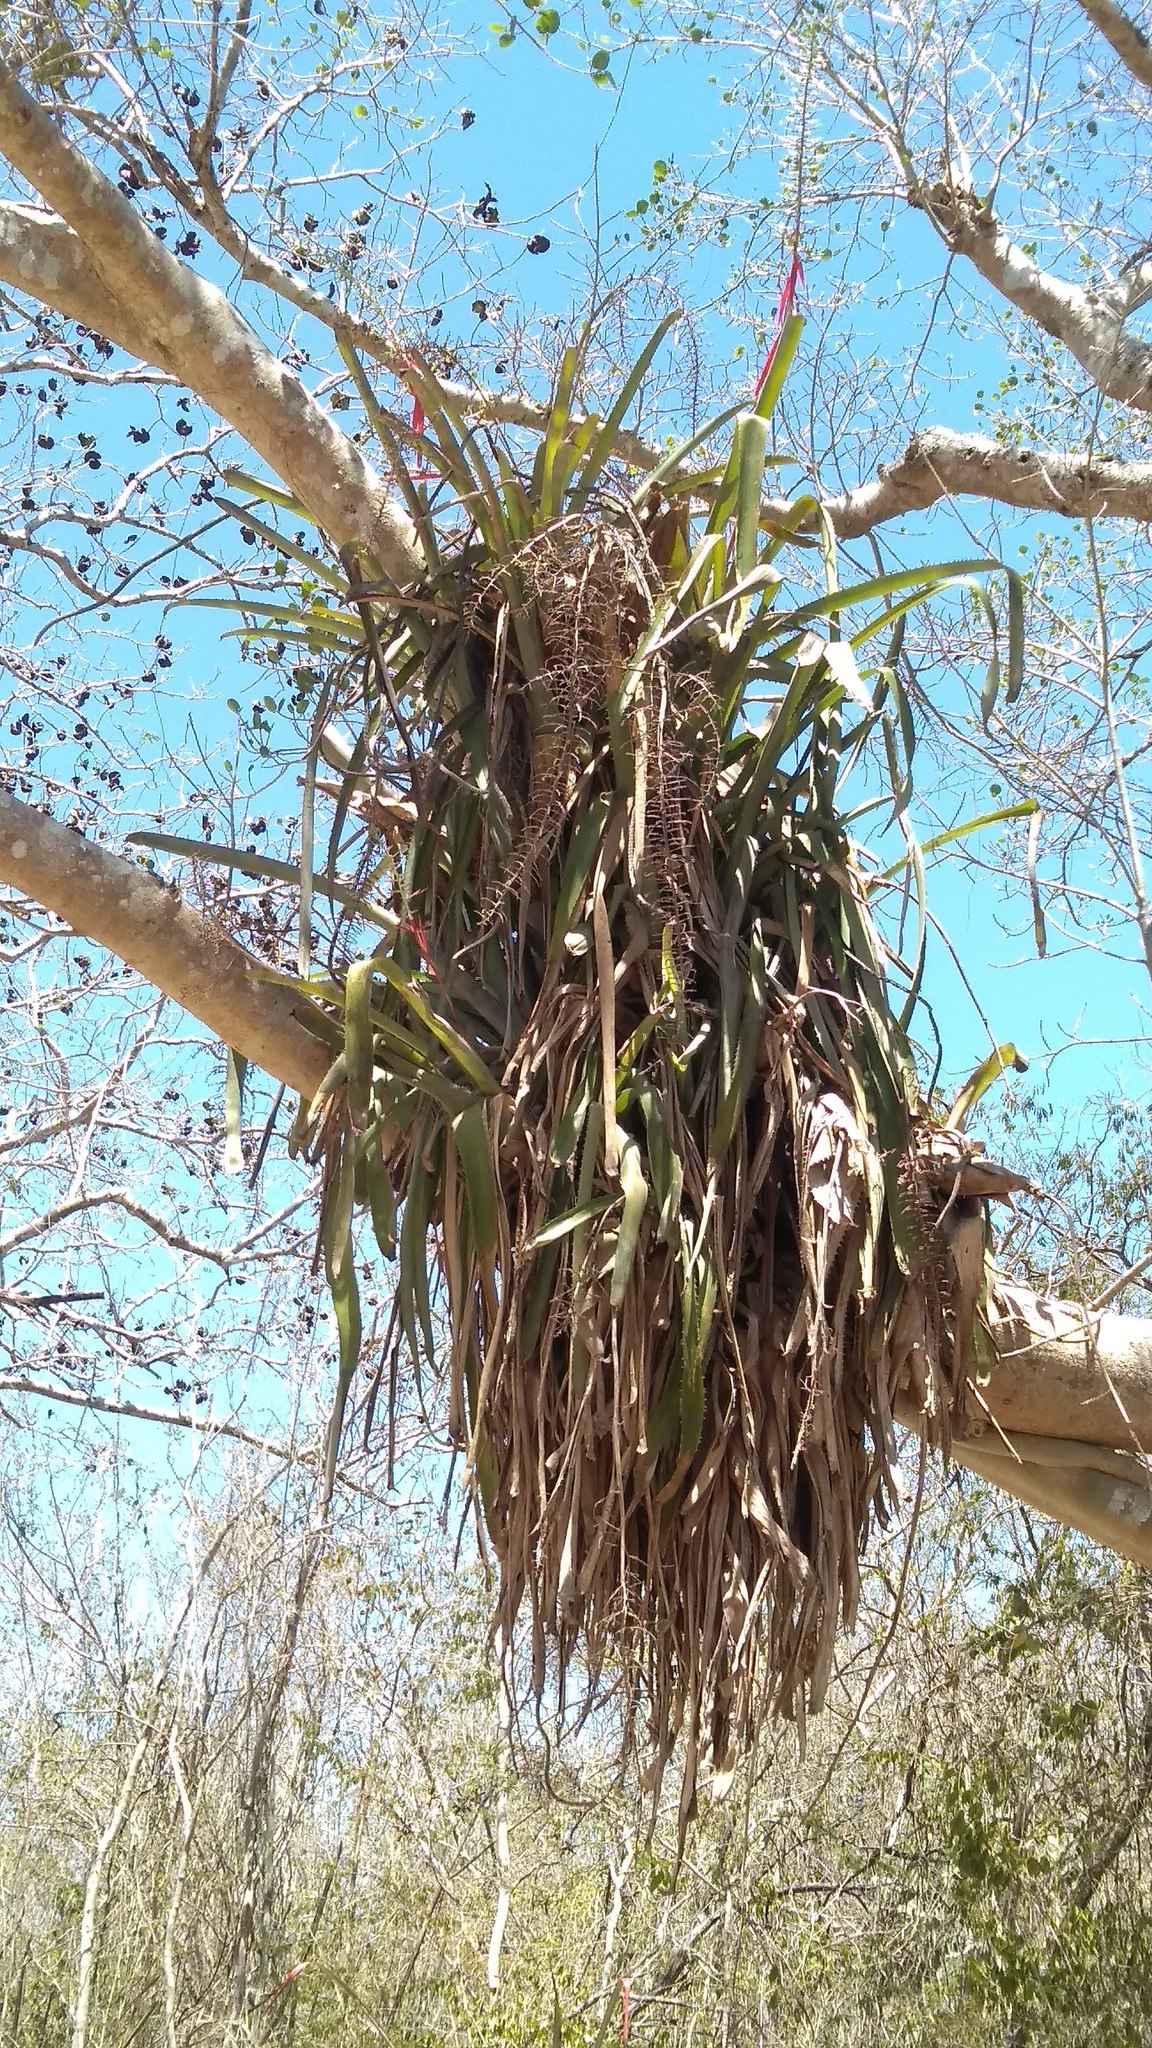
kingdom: Plantae
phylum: Tracheophyta
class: Liliopsida
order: Poales
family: Bromeliaceae
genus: Aechmea
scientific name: Aechmea bracteata
